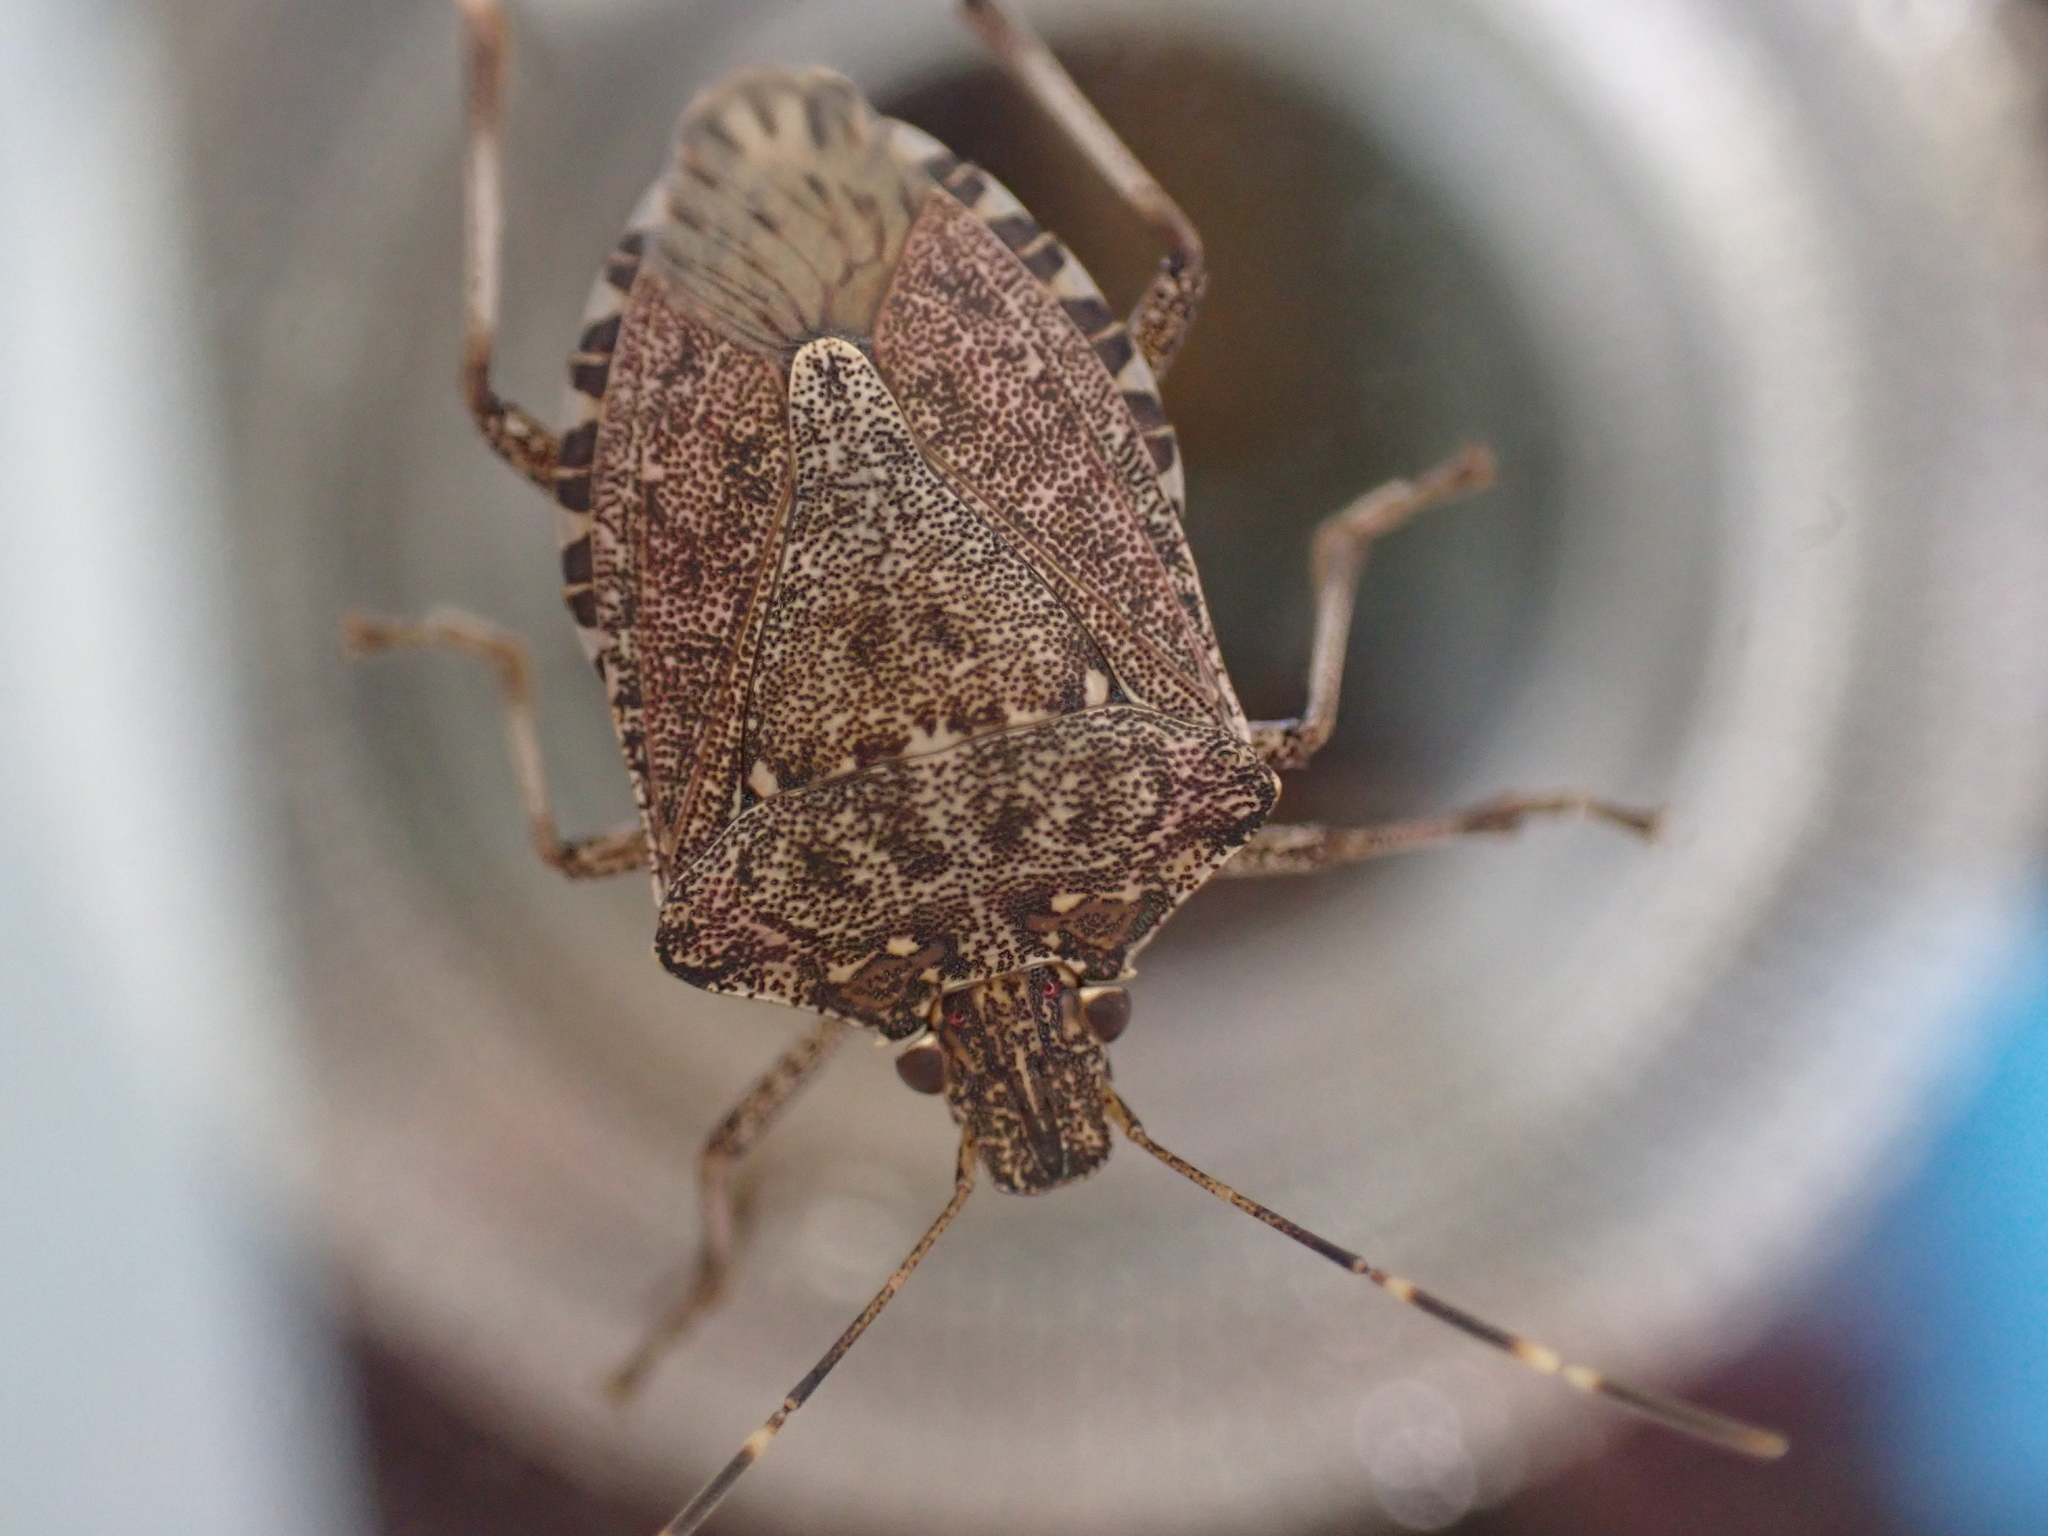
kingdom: Animalia
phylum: Arthropoda
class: Insecta
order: Hemiptera
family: Pentatomidae
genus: Halyomorpha
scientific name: Halyomorpha halys
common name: Brown marmorated stink bug
